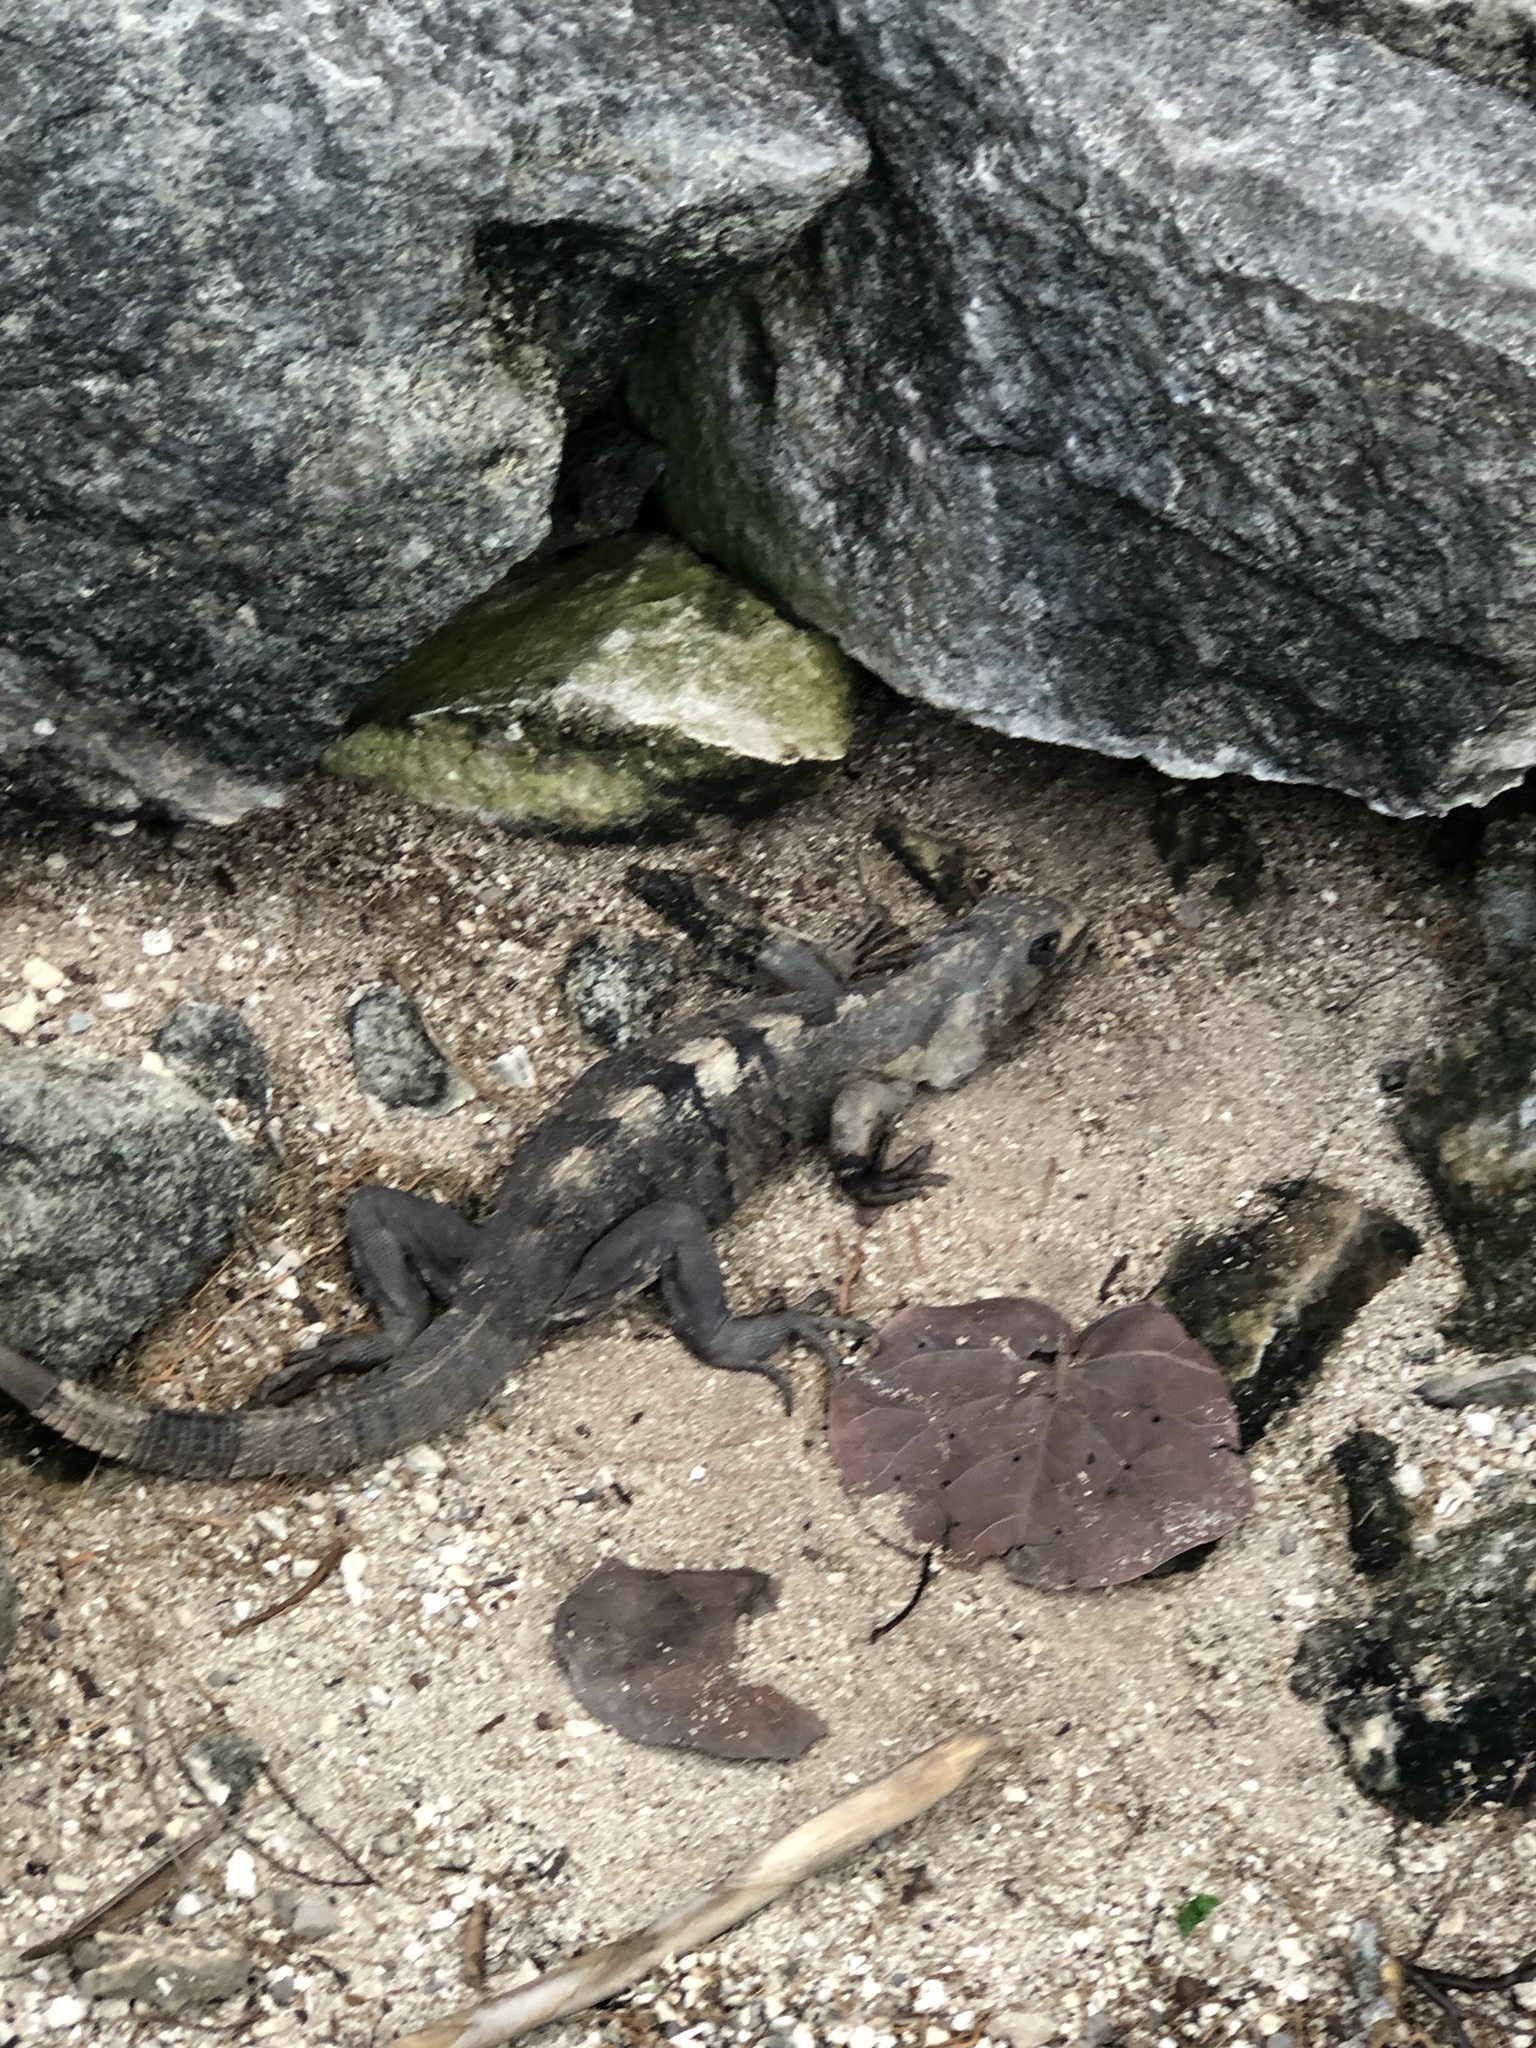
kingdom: Animalia
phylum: Chordata
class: Squamata
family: Iguanidae
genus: Ctenosaura
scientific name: Ctenosaura similis
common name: Black spiny-tailed iguana
